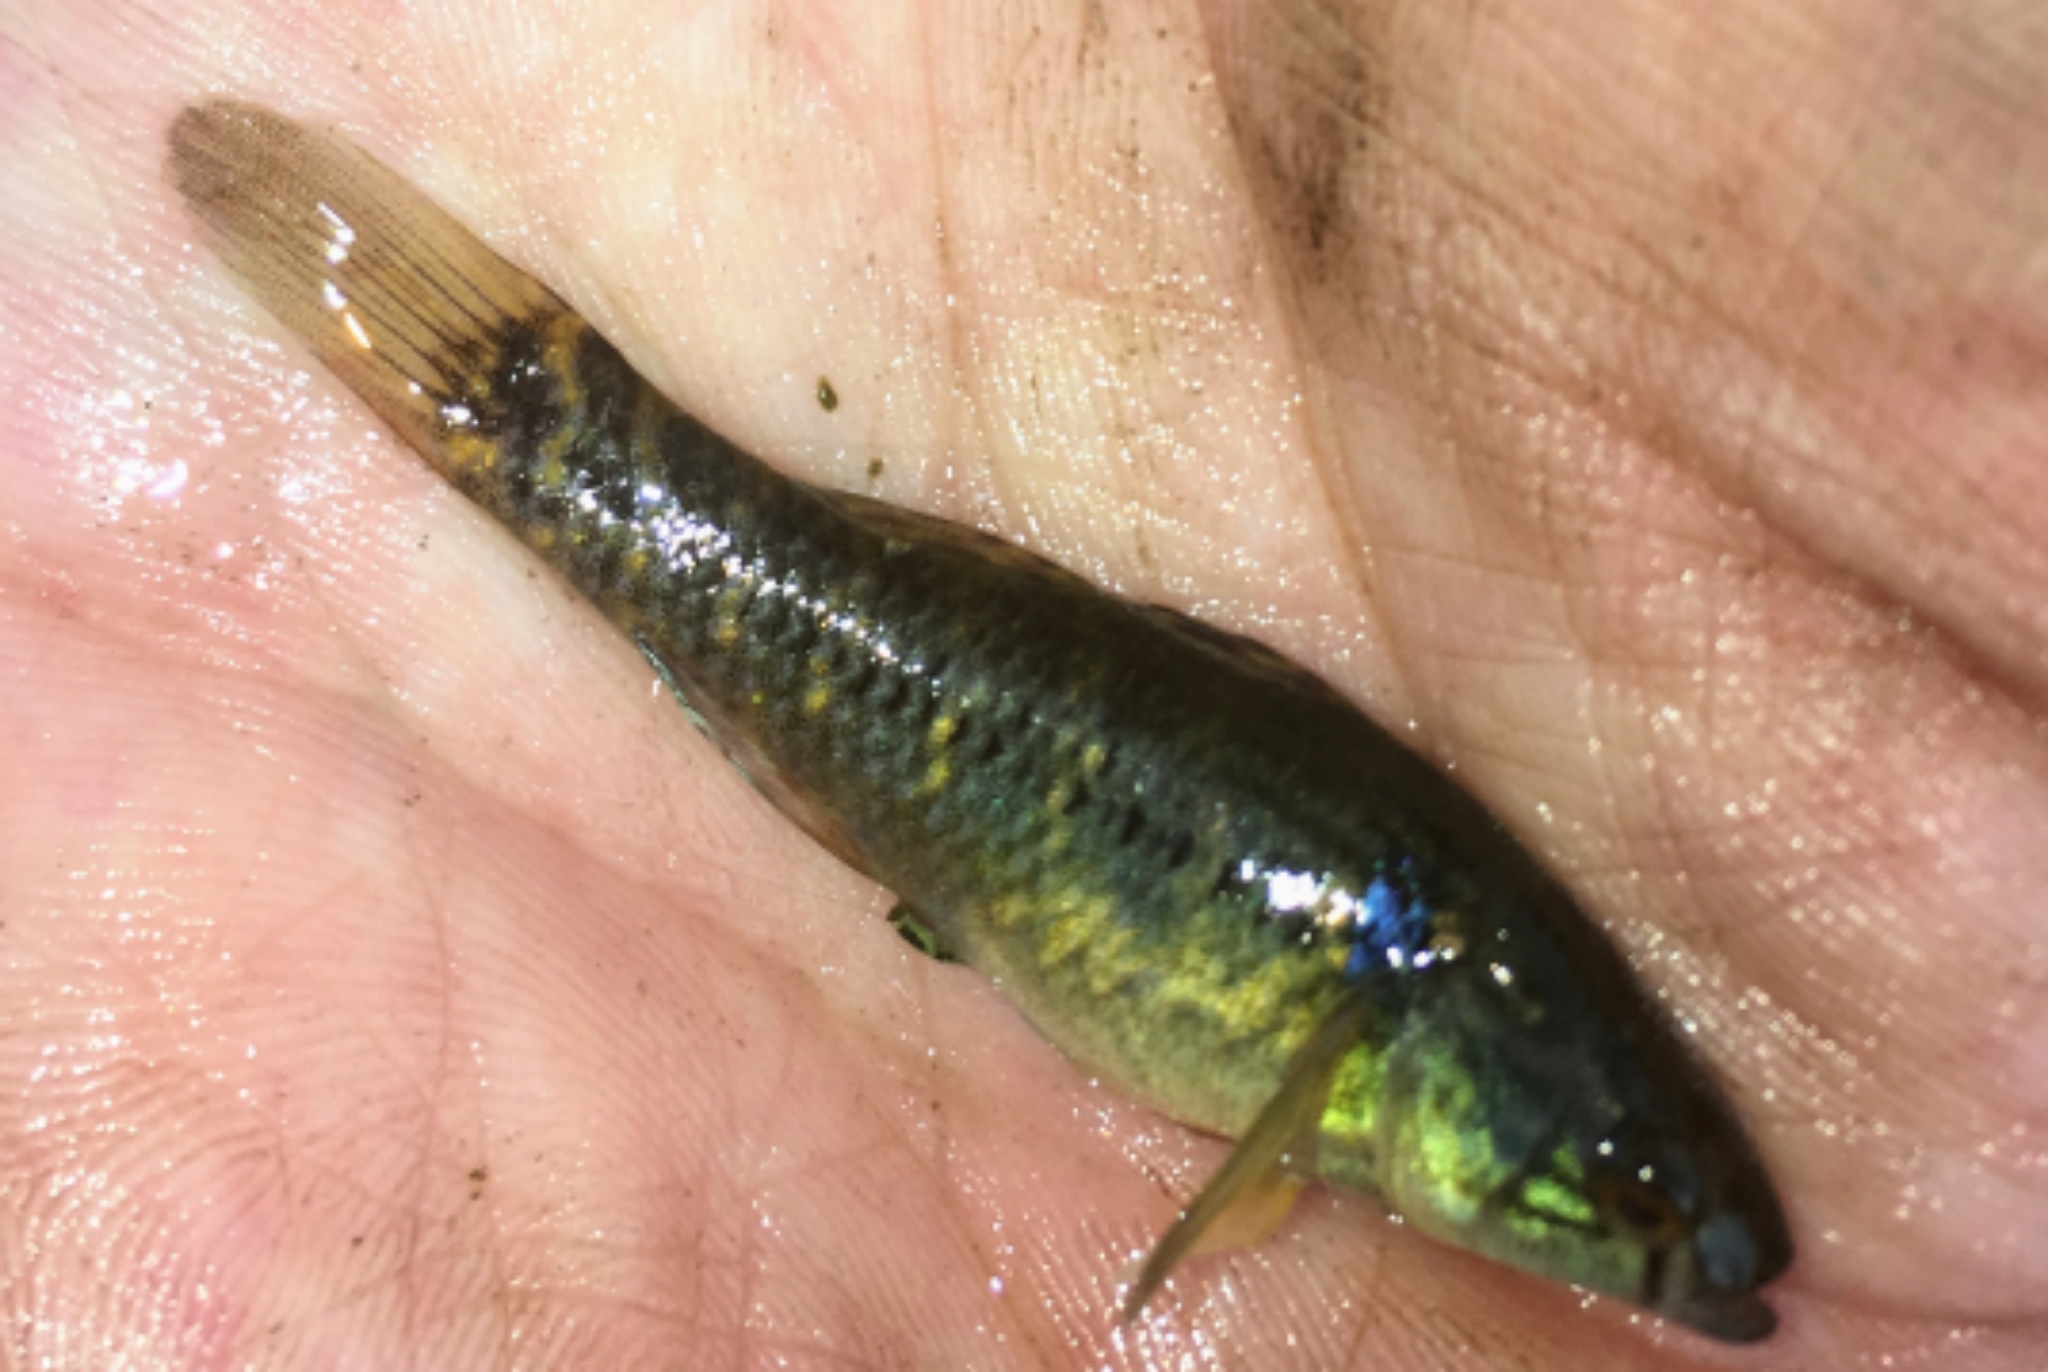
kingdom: Animalia
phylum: Chordata
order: Perciformes
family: Eleotridae
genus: Dormitator
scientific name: Dormitator maculatus
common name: Fat sleeper
